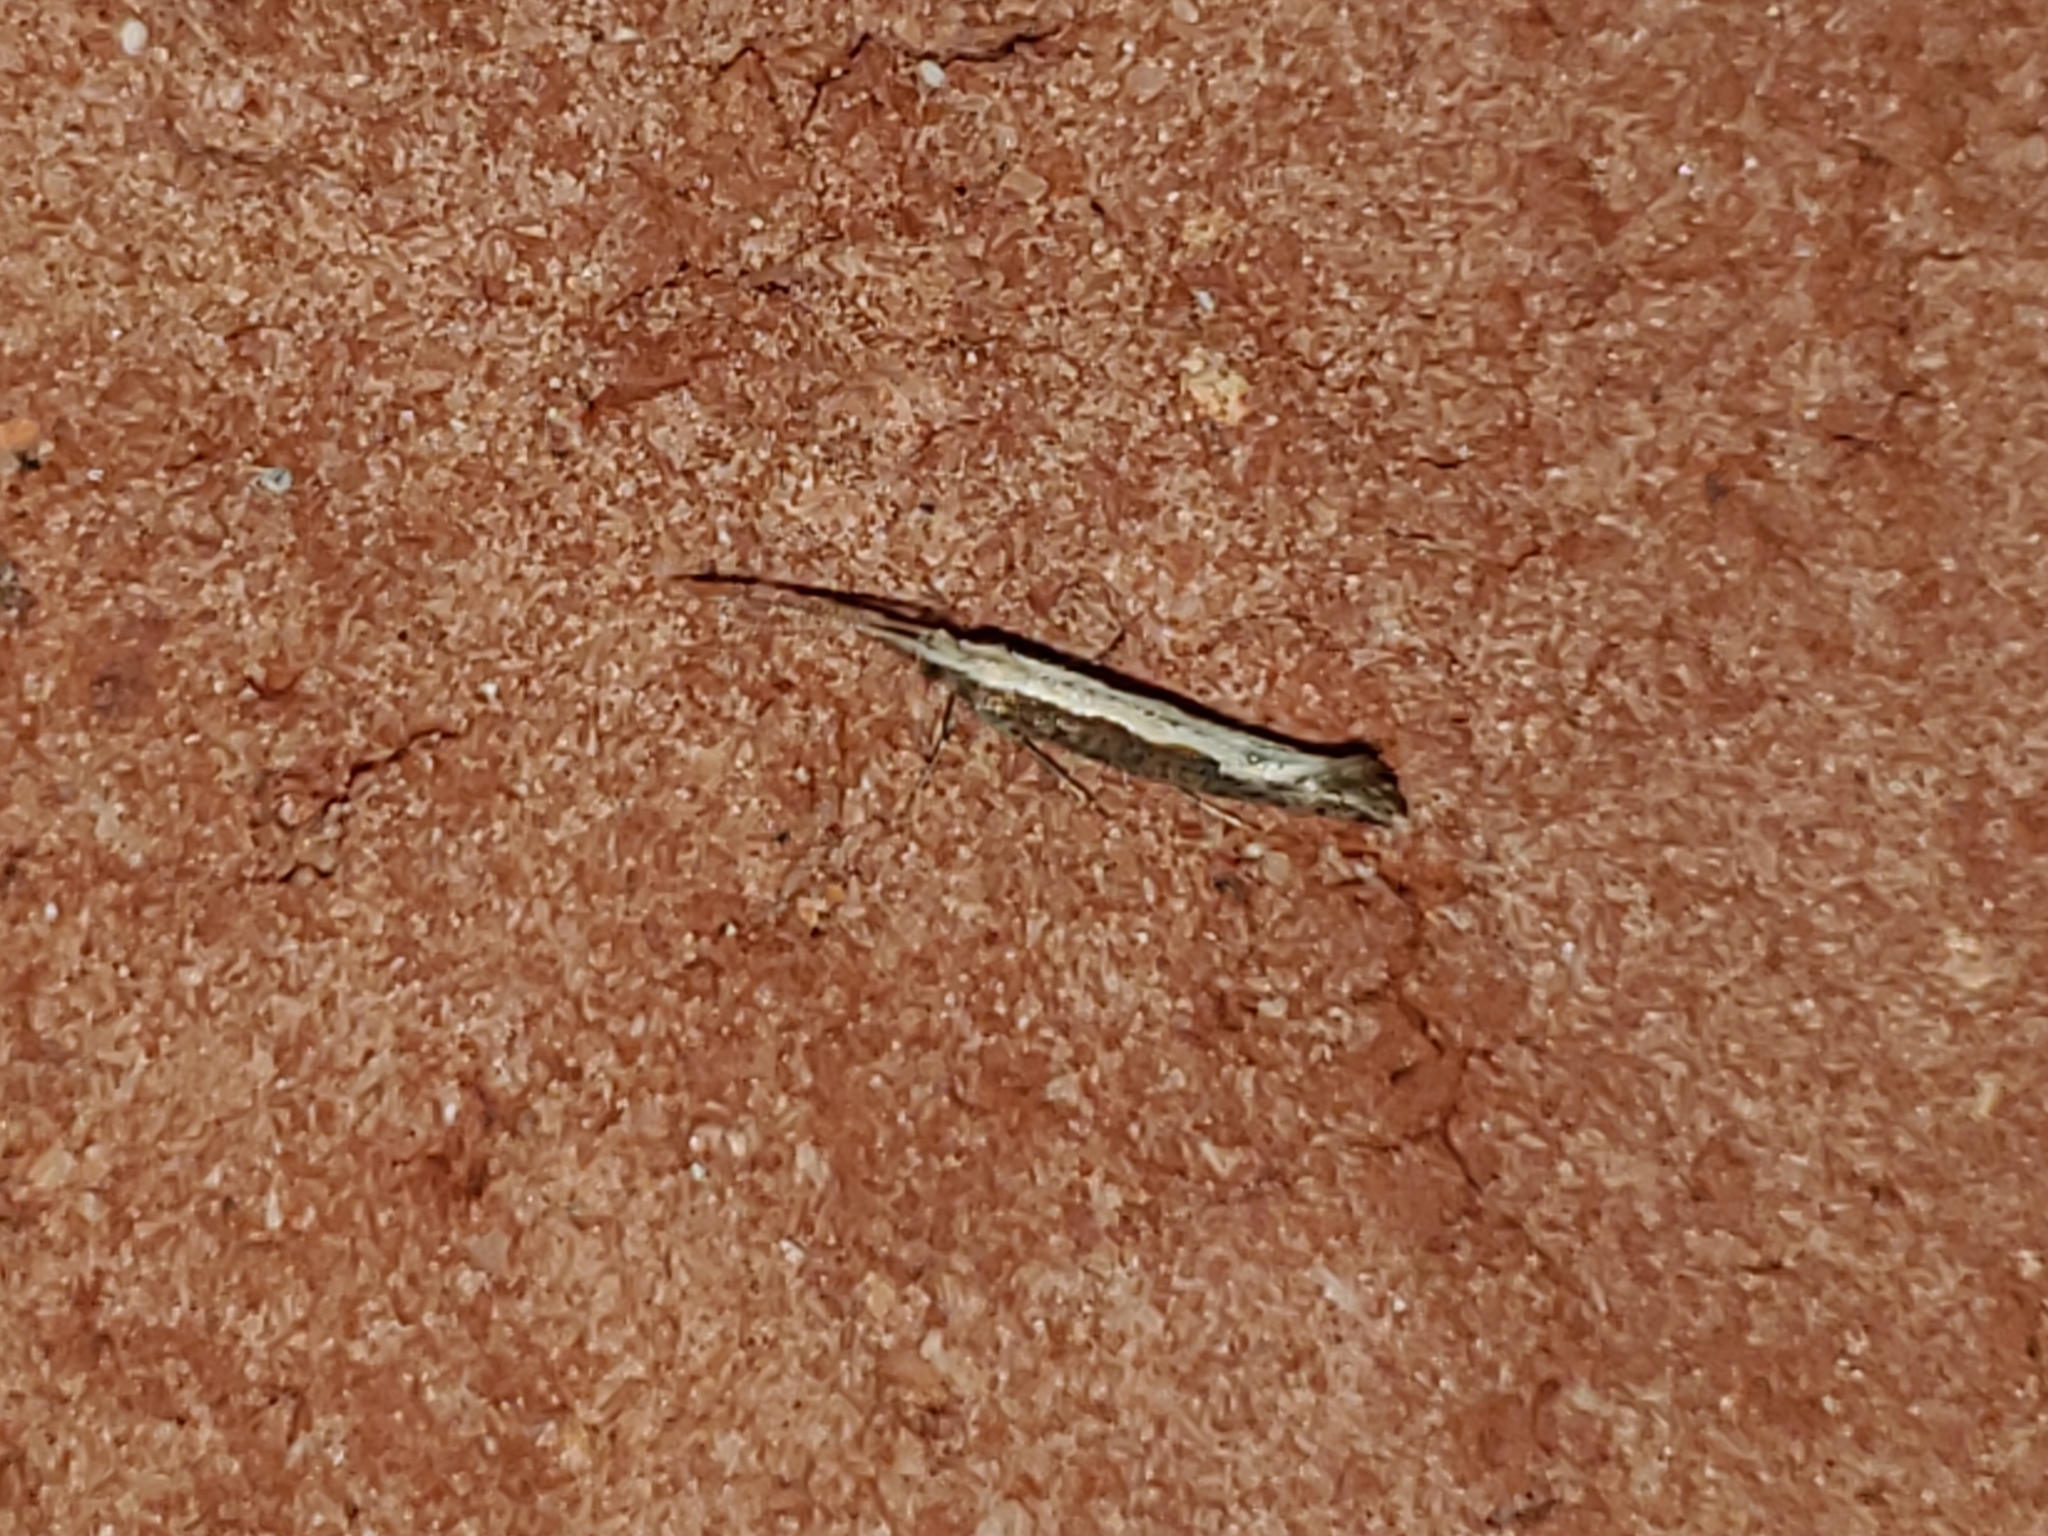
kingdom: Animalia
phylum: Arthropoda
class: Insecta
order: Lepidoptera
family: Plutellidae
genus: Plutella
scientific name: Plutella xylostella
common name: Diamond-back moth
